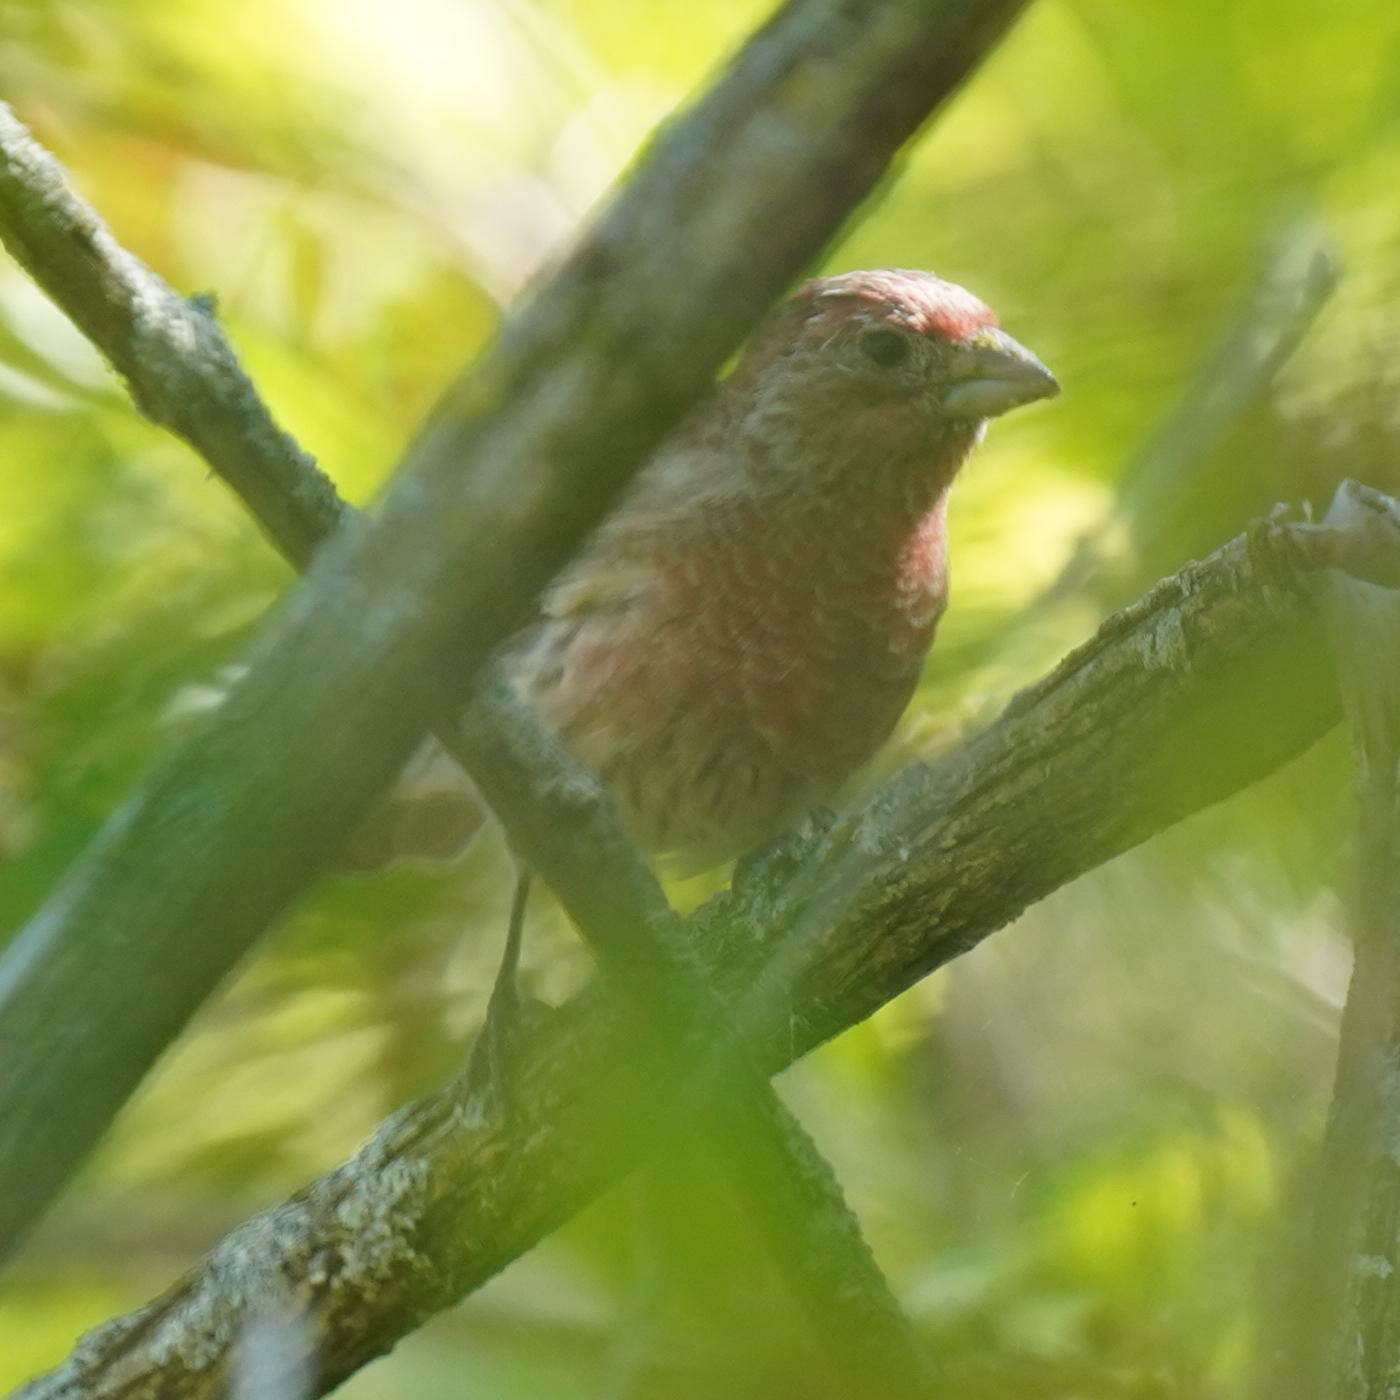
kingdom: Animalia
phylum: Chordata
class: Aves
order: Passeriformes
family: Fringillidae
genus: Haemorhous
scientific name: Haemorhous mexicanus
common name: House finch
